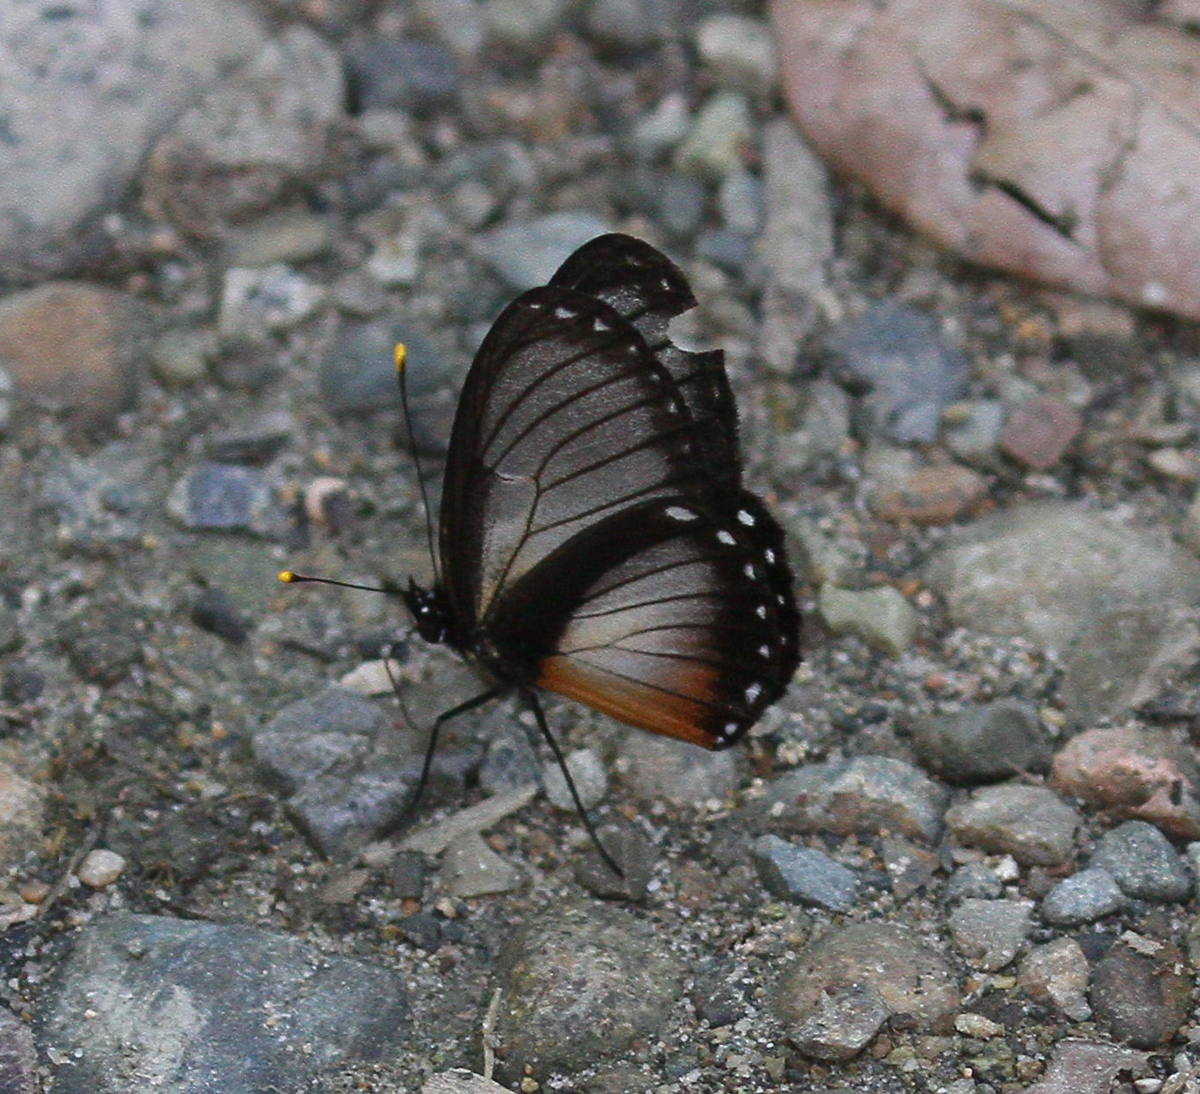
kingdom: Animalia
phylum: Arthropoda
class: Insecta
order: Lepidoptera
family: Nymphalidae
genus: Eresia
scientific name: Eresia datis
